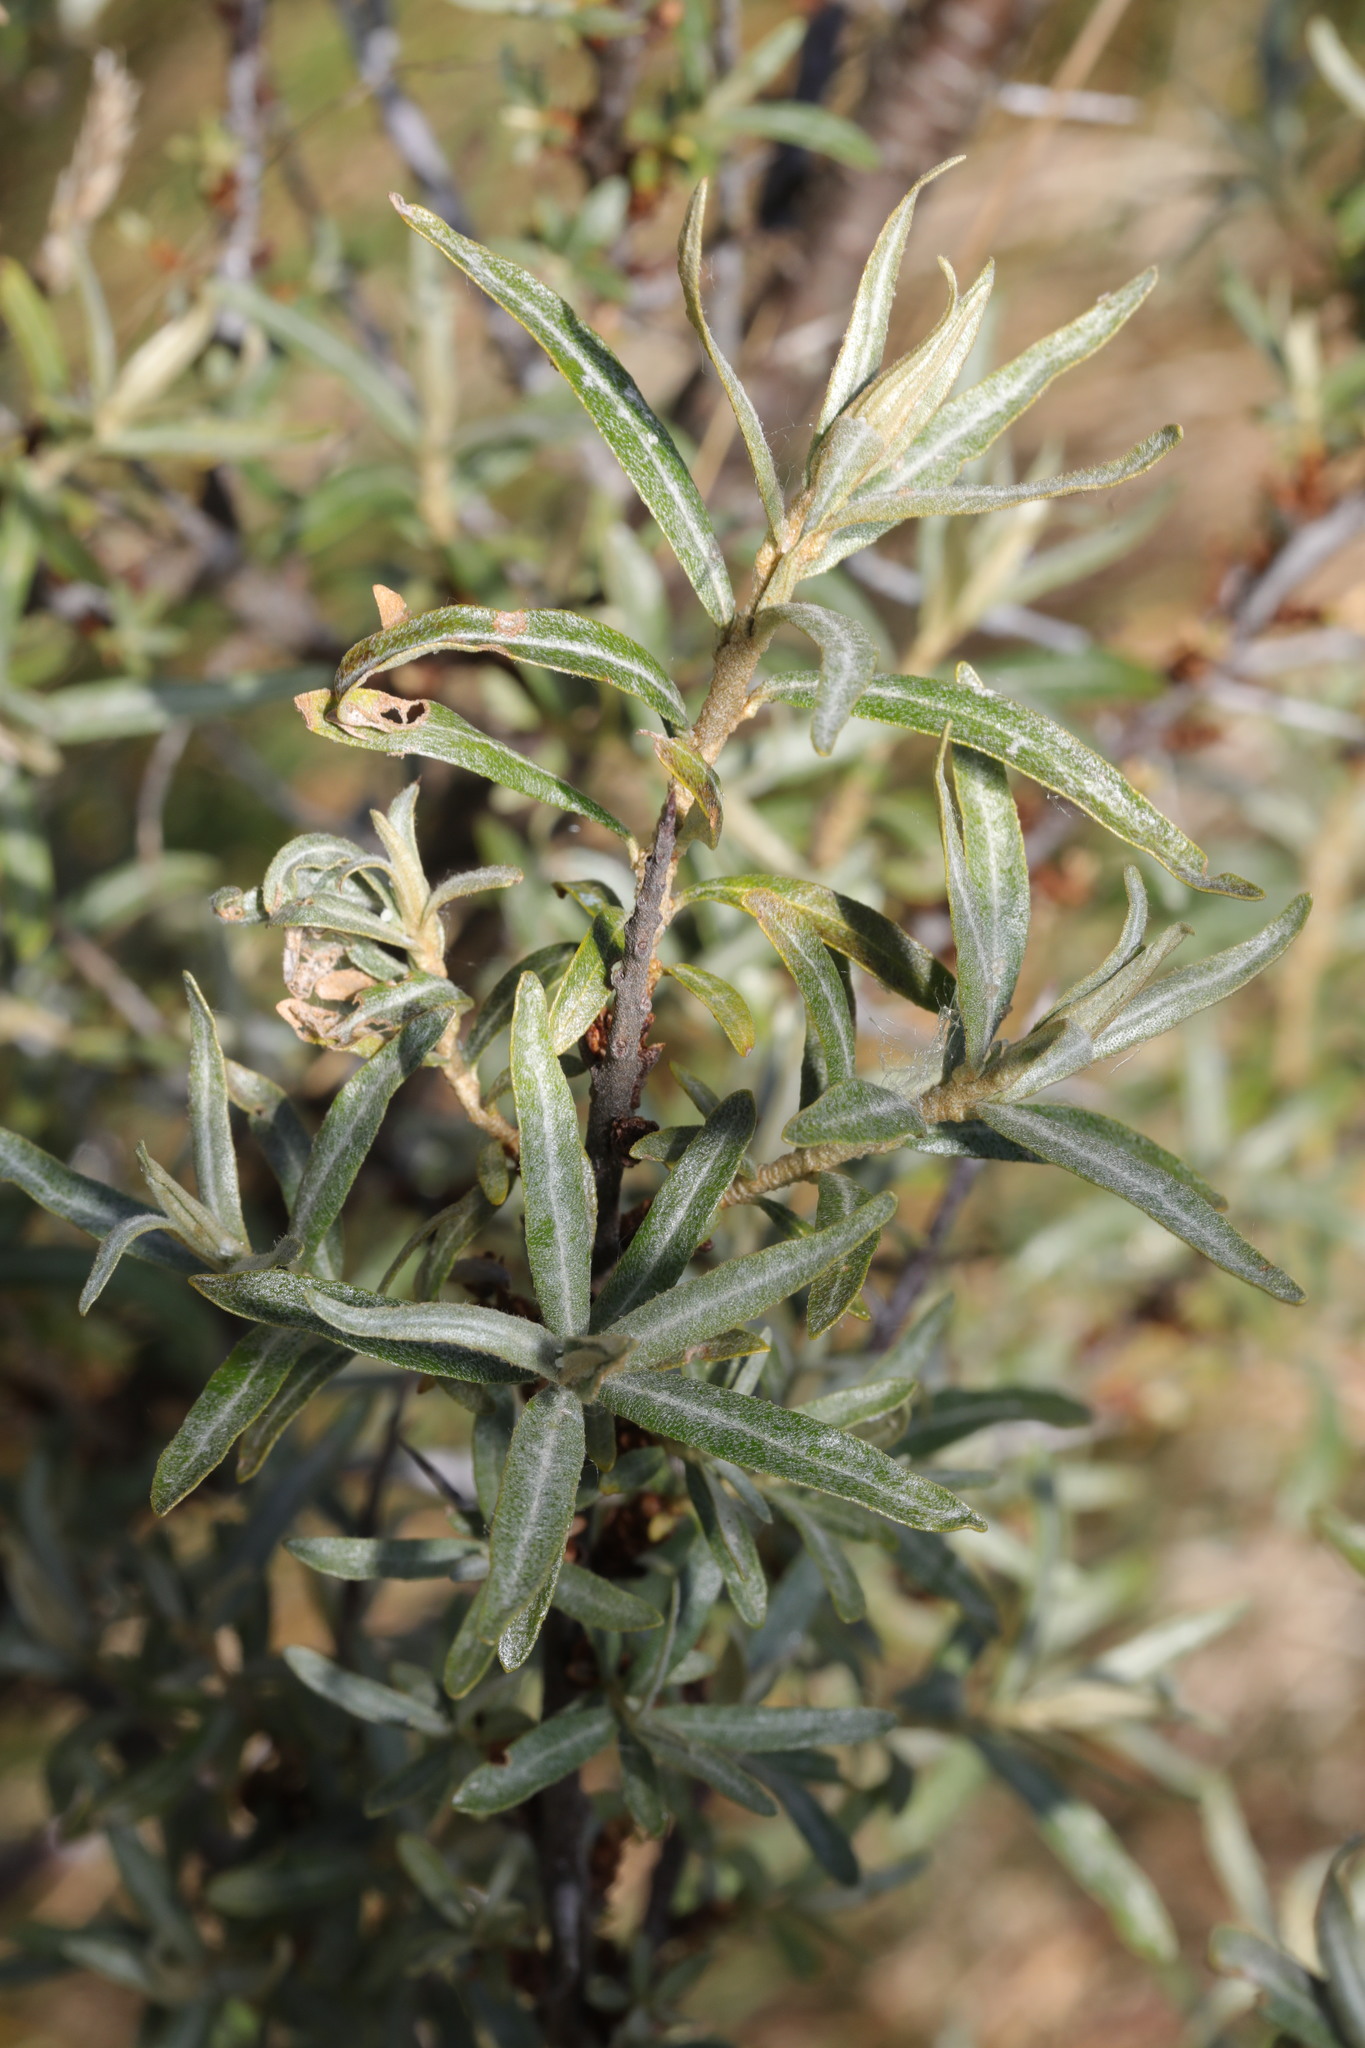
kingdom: Plantae
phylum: Tracheophyta
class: Magnoliopsida
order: Rosales
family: Elaeagnaceae
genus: Hippophae
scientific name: Hippophae rhamnoides
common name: Sea-buckthorn
